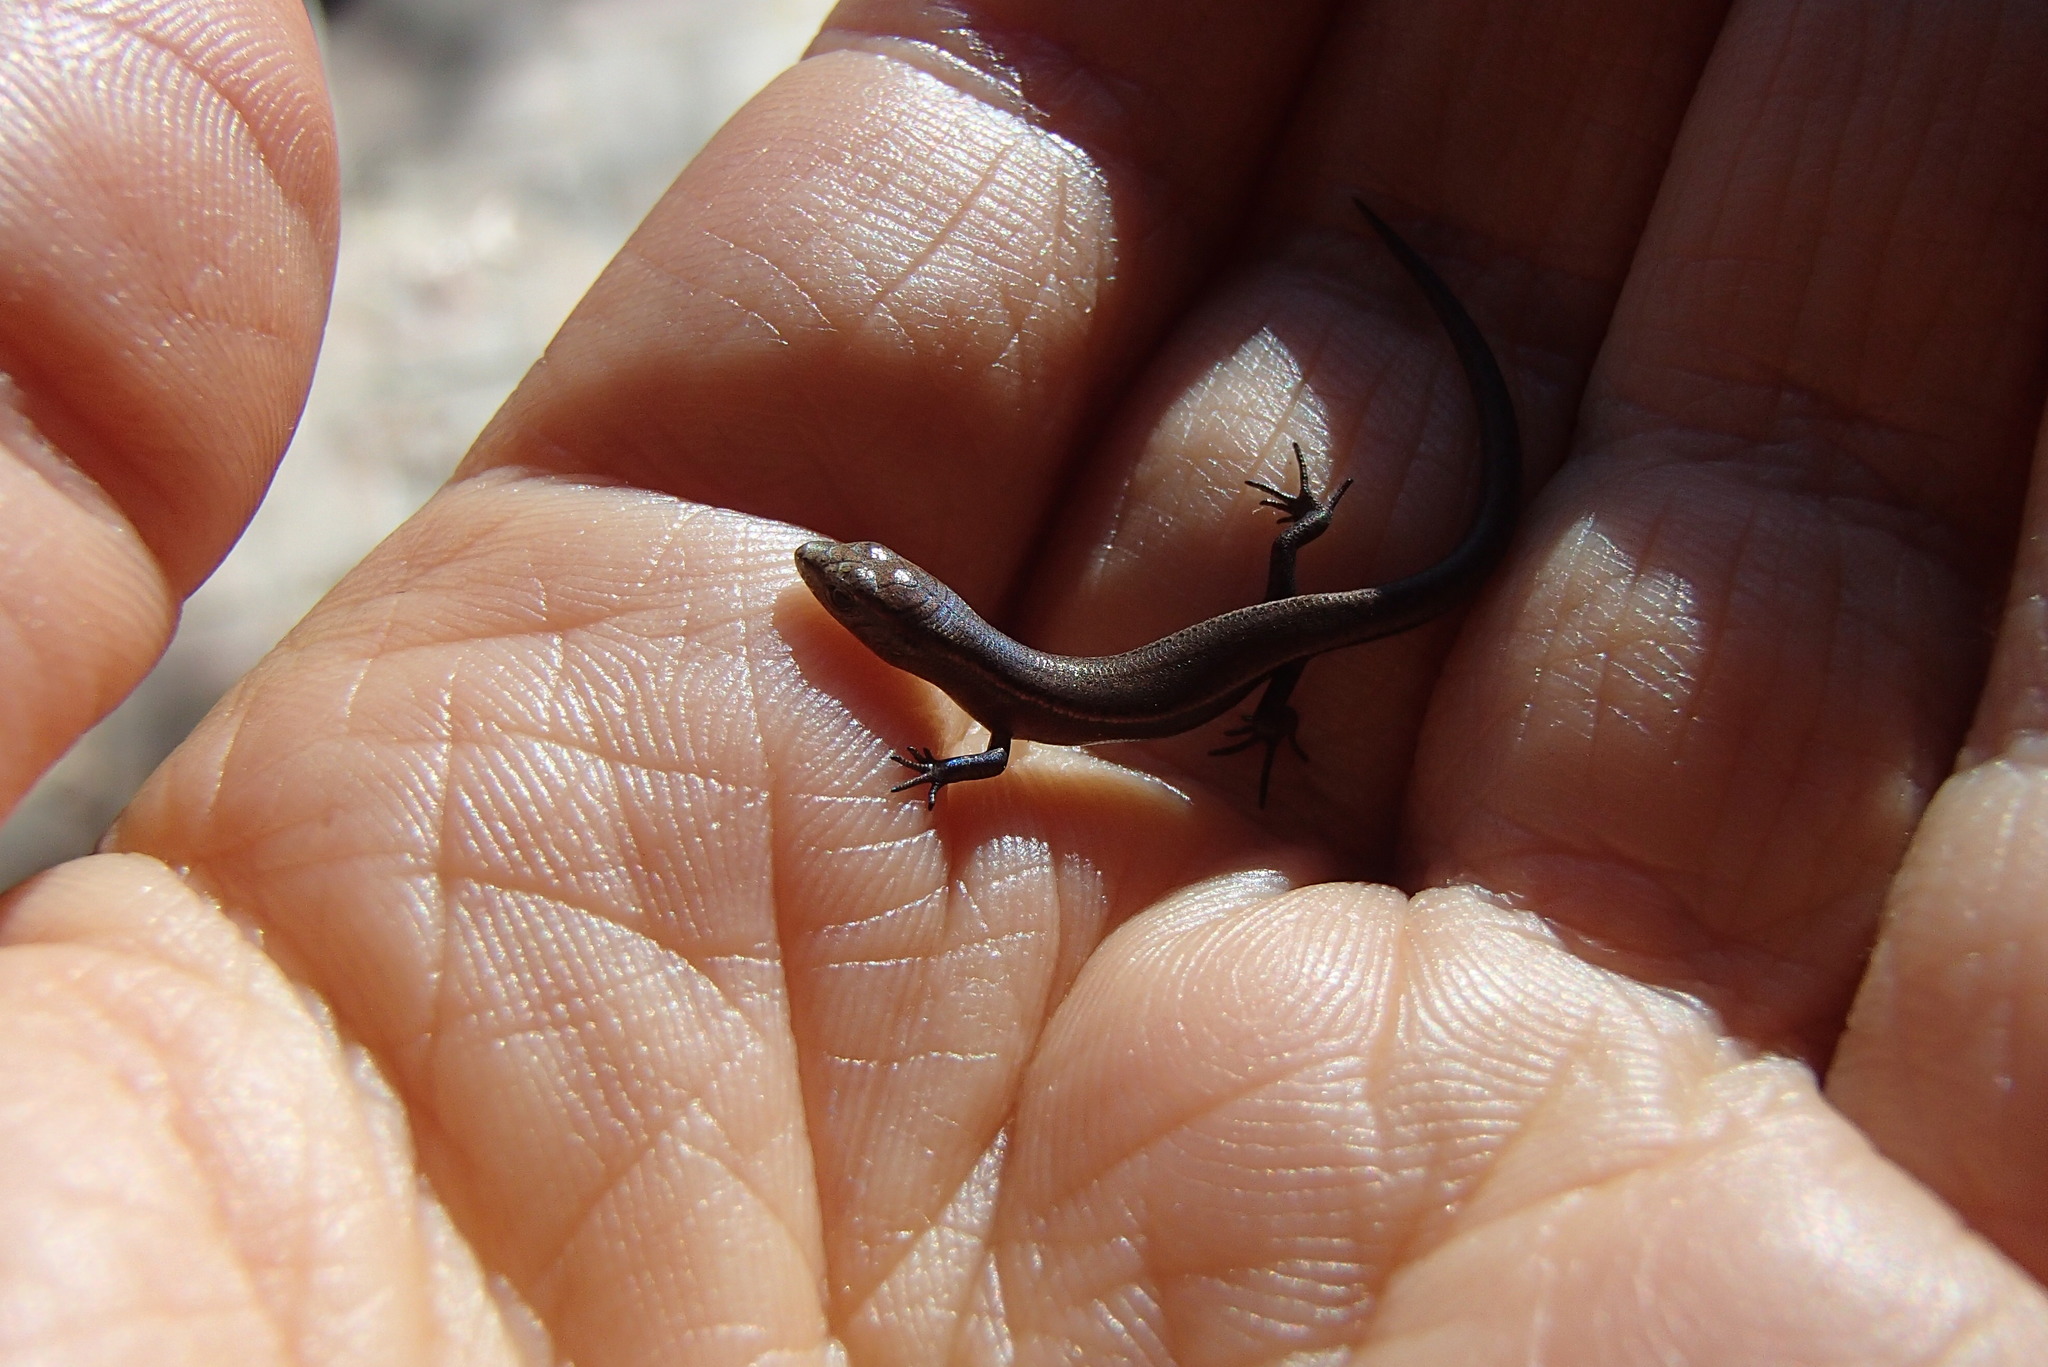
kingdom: Animalia
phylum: Chordata
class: Squamata
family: Scincidae
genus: Lampropholis
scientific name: Lampropholis delicata
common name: Plague skink
